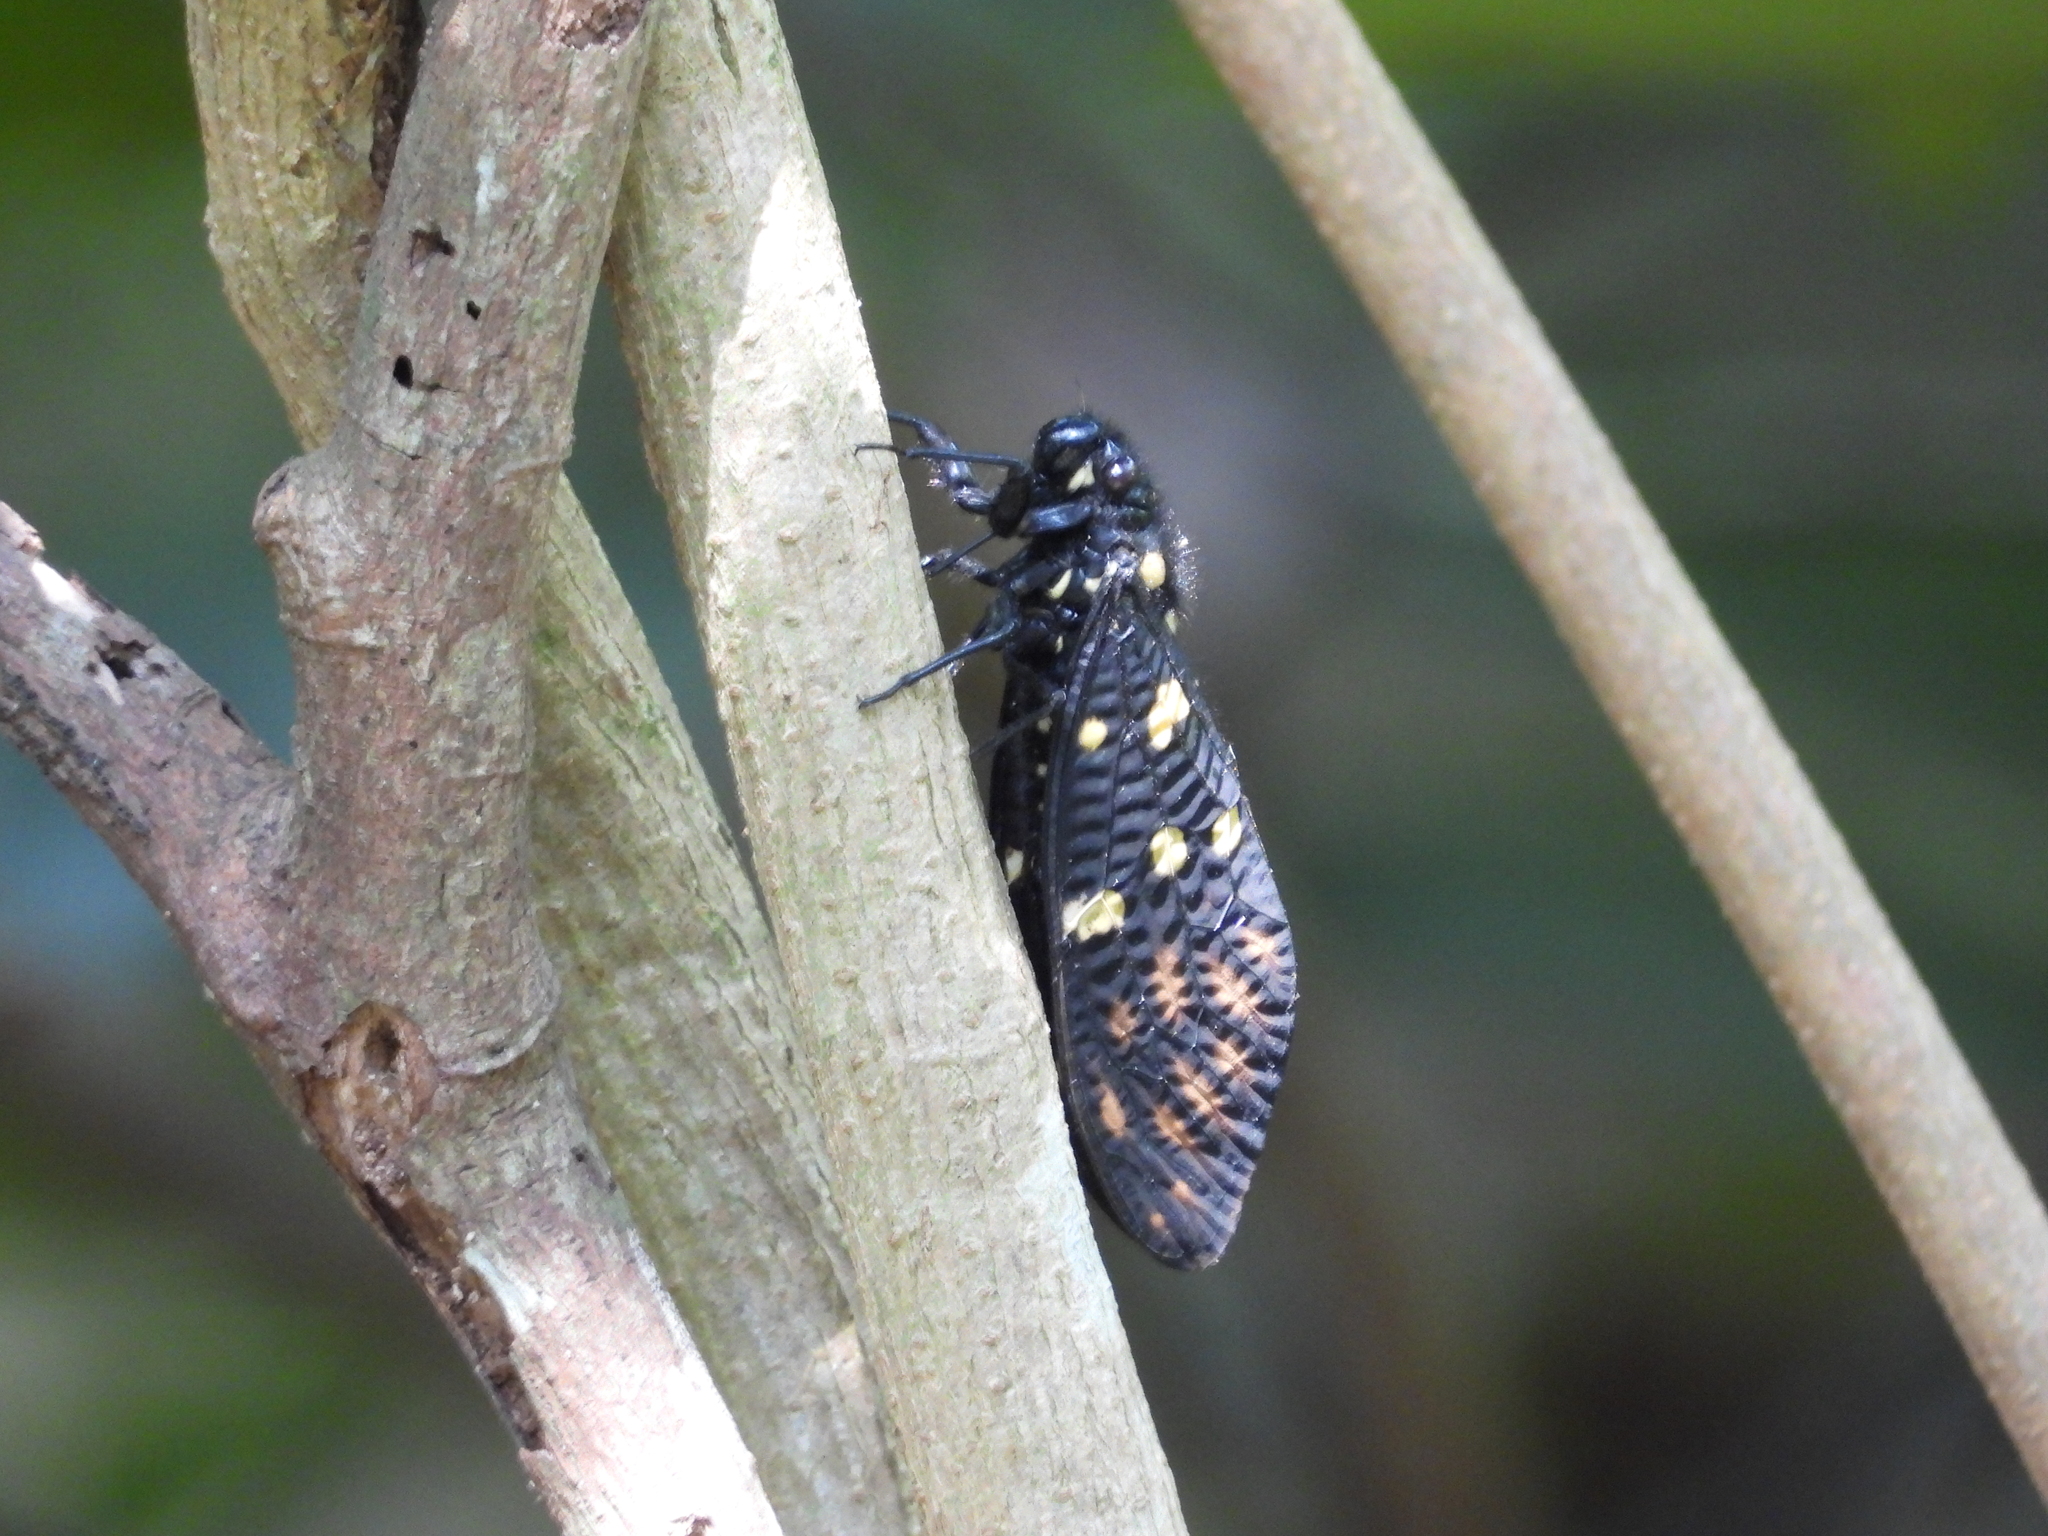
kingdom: Animalia
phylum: Arthropoda
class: Insecta
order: Hemiptera
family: Cicadidae
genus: Gaeana
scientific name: Gaeana maculata
